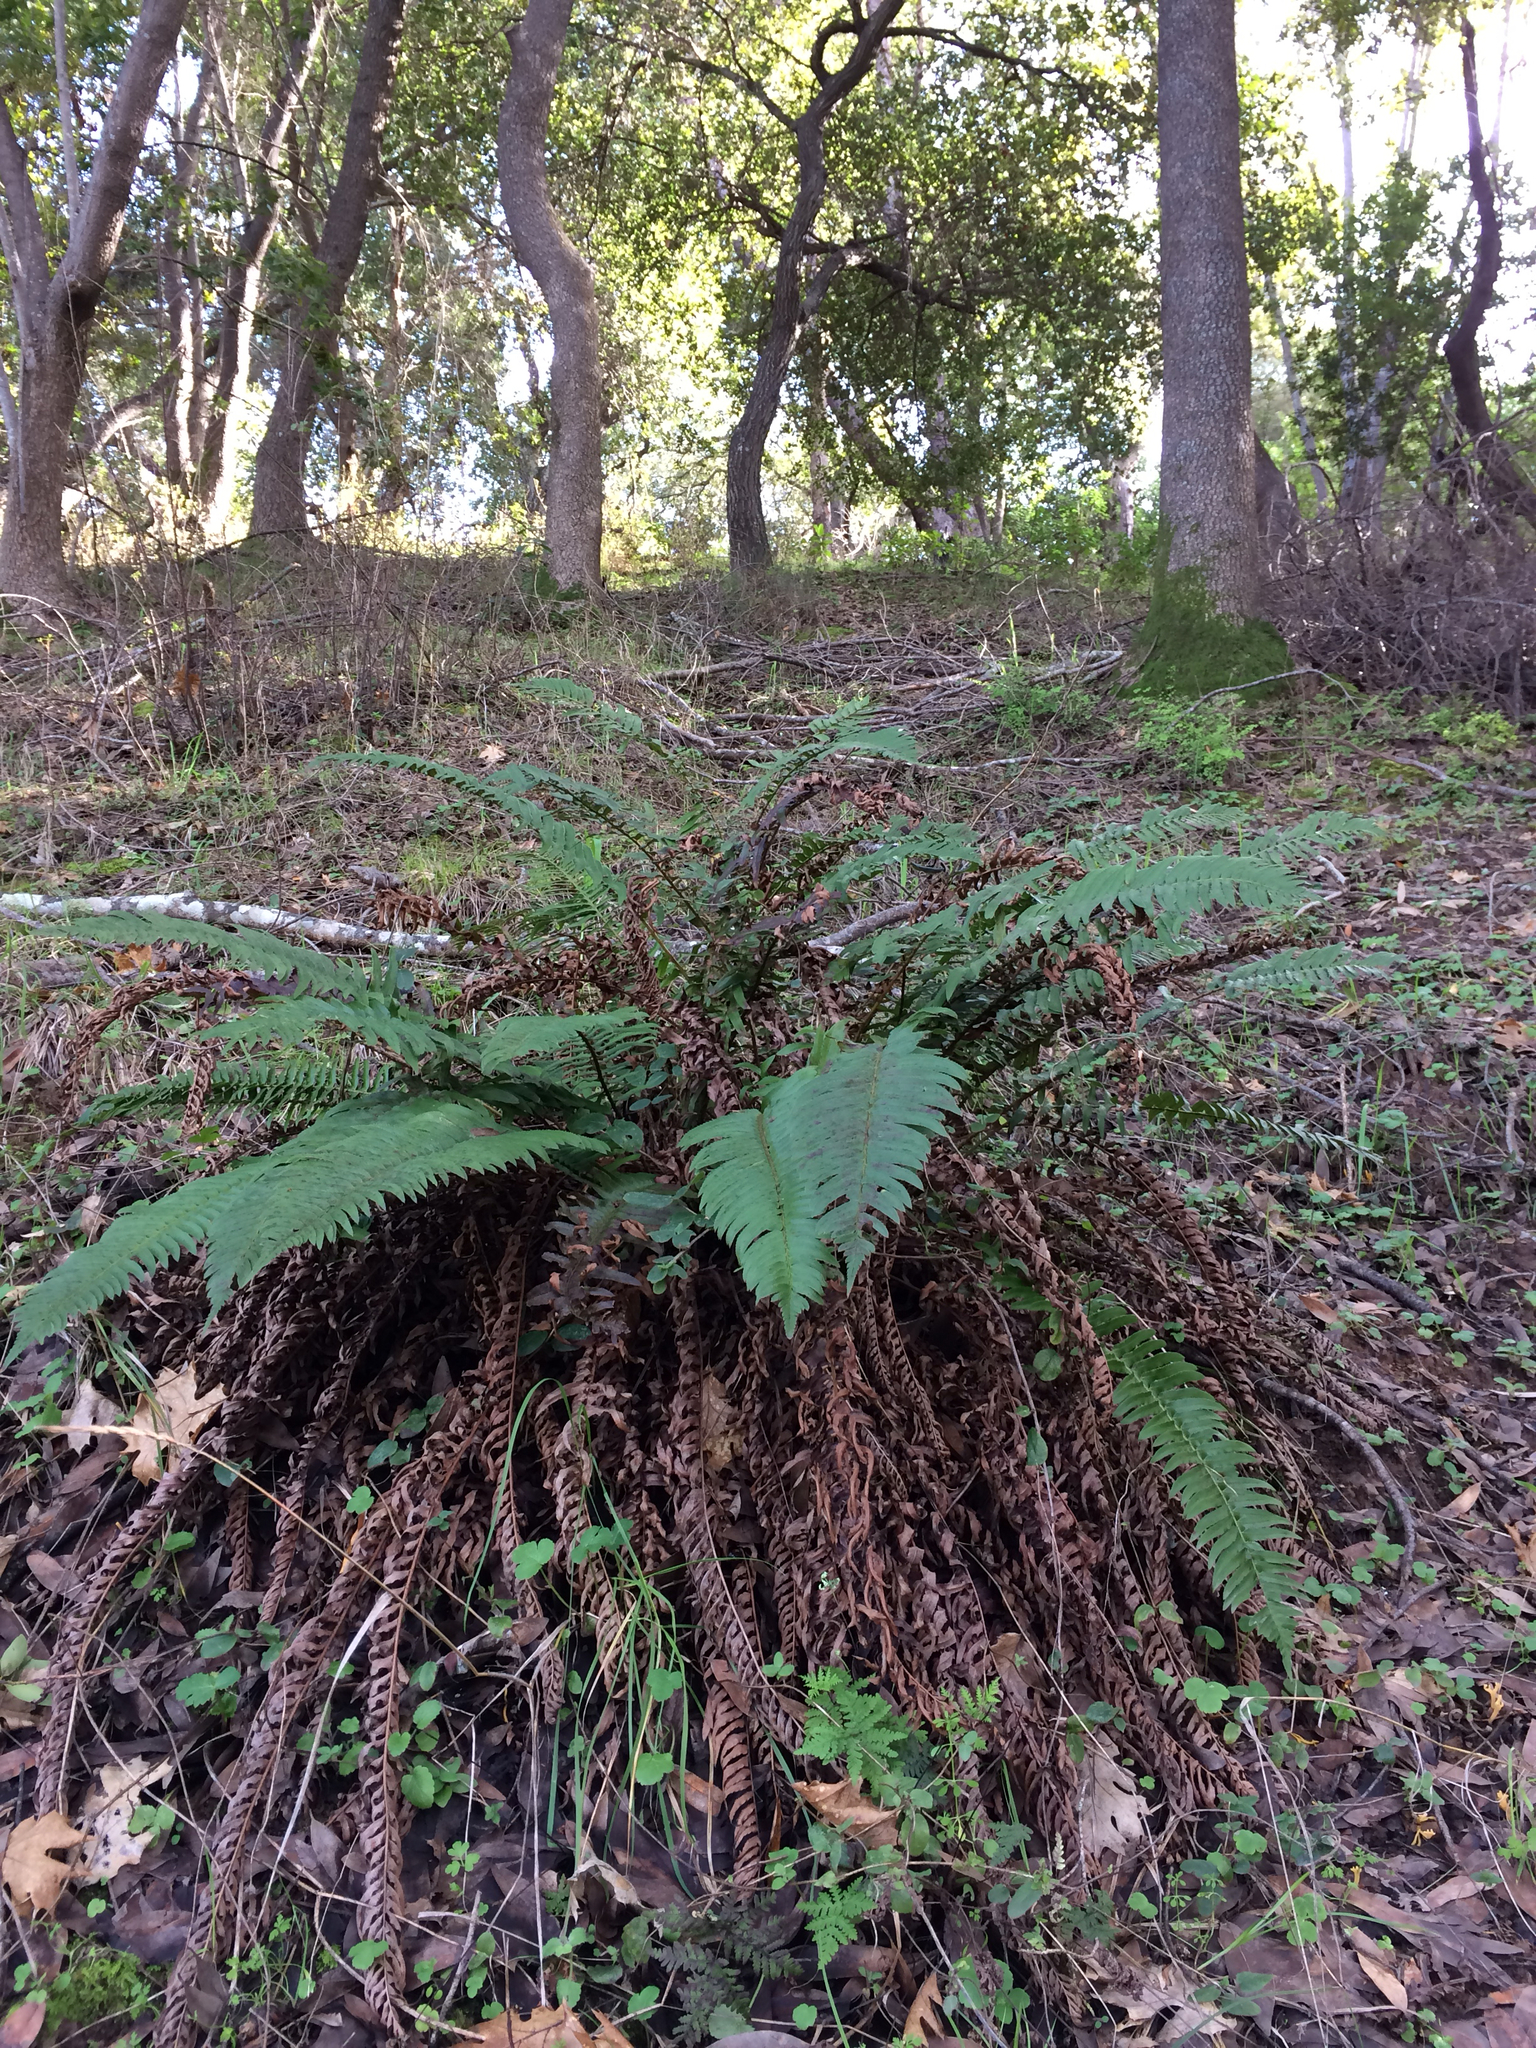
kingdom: Plantae
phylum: Tracheophyta
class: Polypodiopsida
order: Polypodiales
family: Dryopteridaceae
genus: Polystichum
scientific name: Polystichum munitum
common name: Western sword-fern
